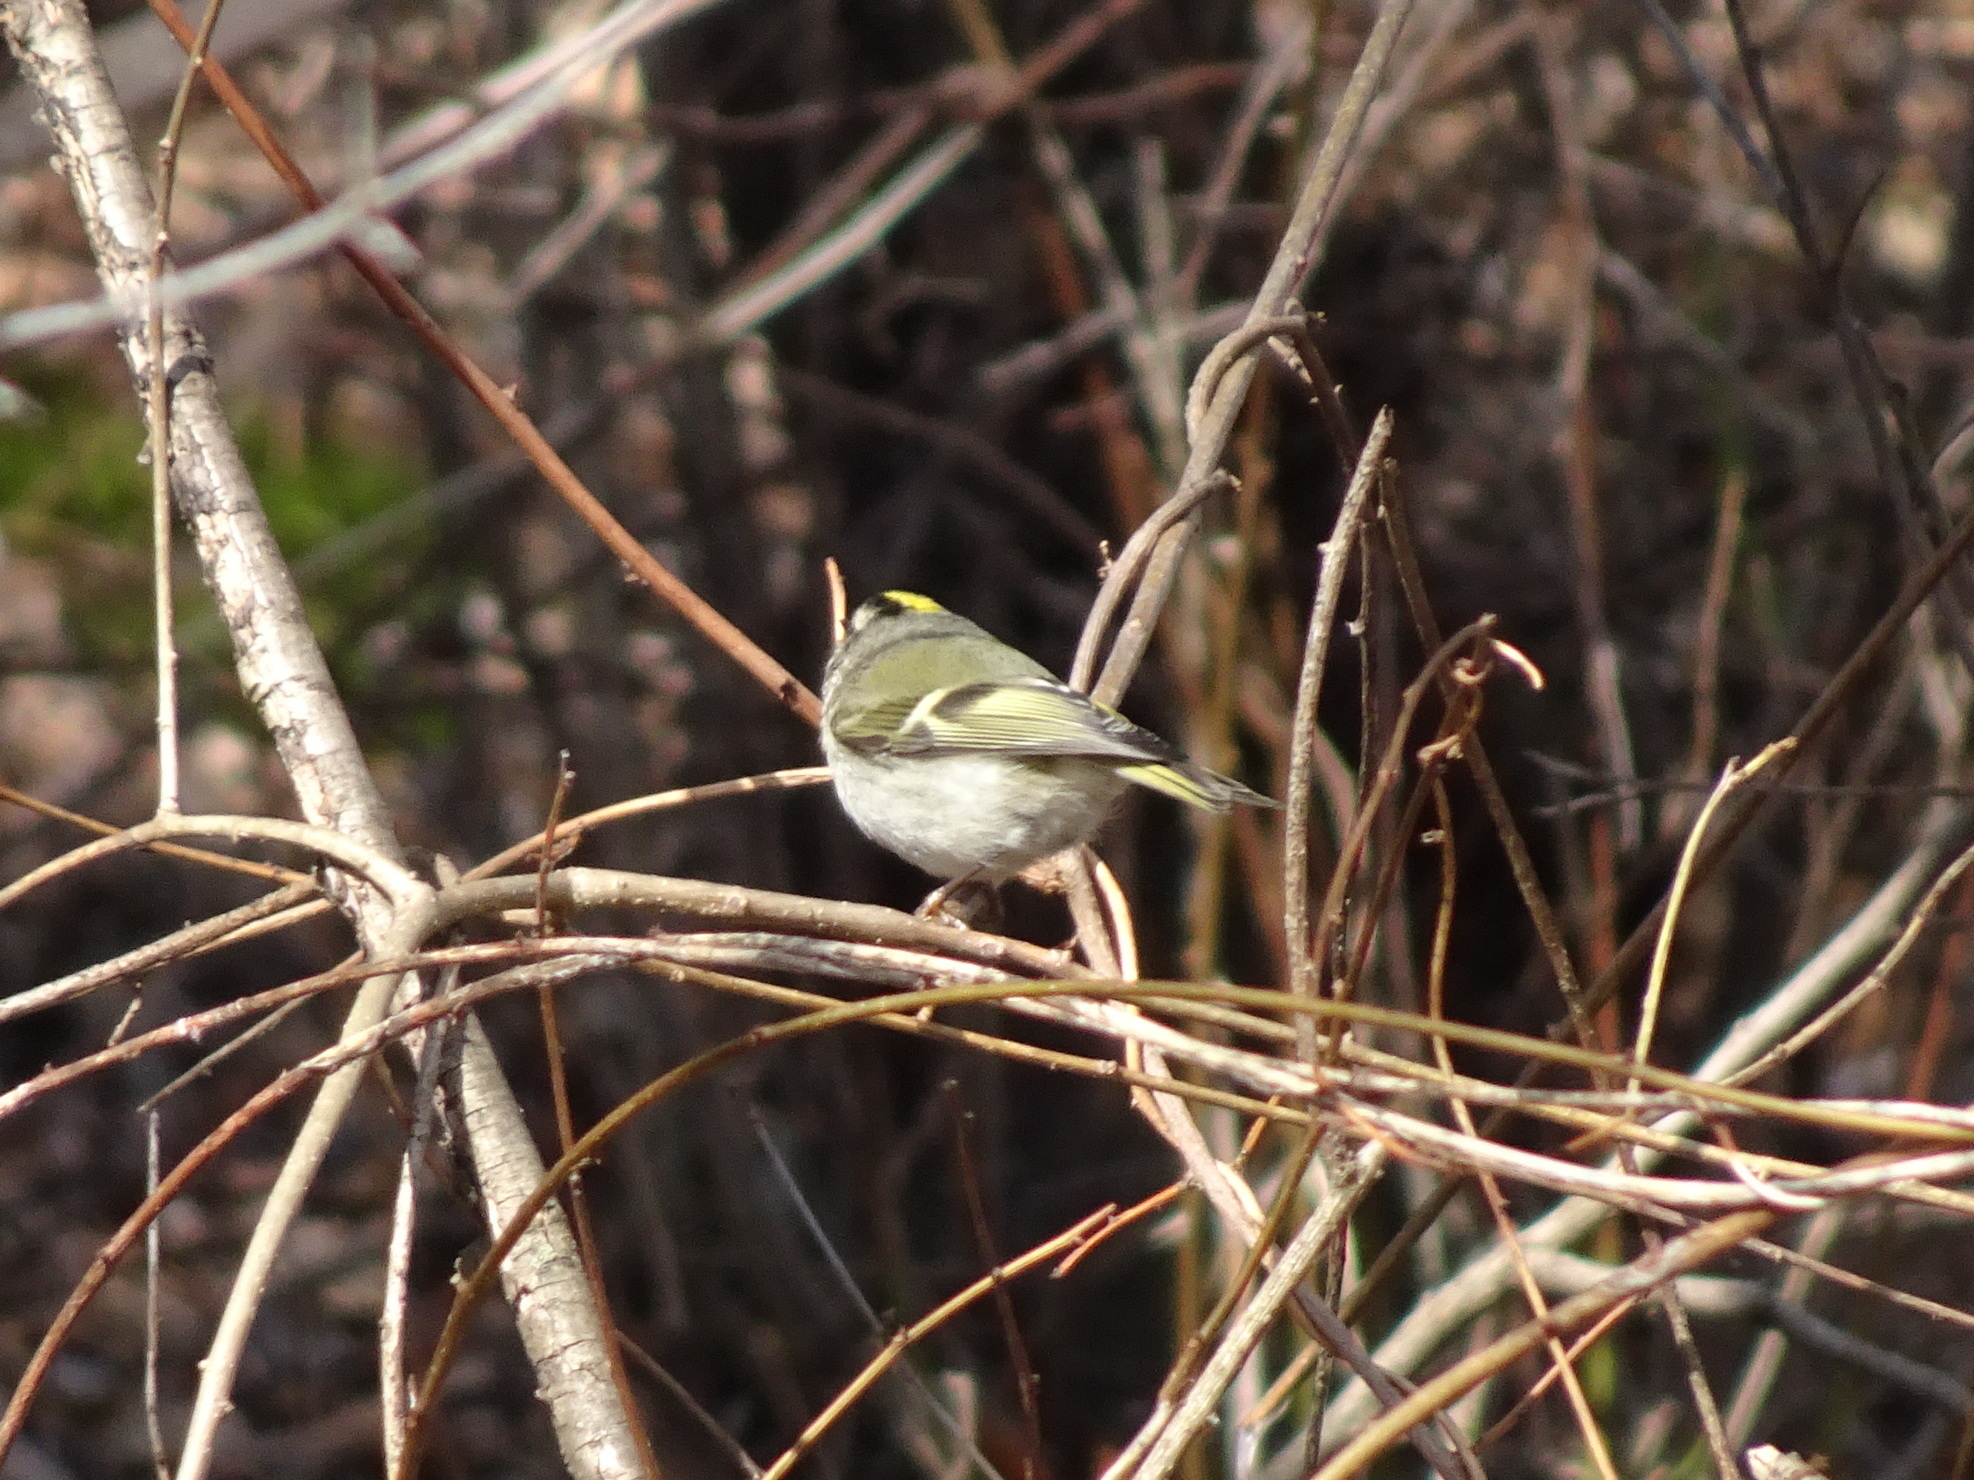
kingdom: Animalia
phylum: Chordata
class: Aves
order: Passeriformes
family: Regulidae
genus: Regulus
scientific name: Regulus satrapa
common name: Golden-crowned kinglet
